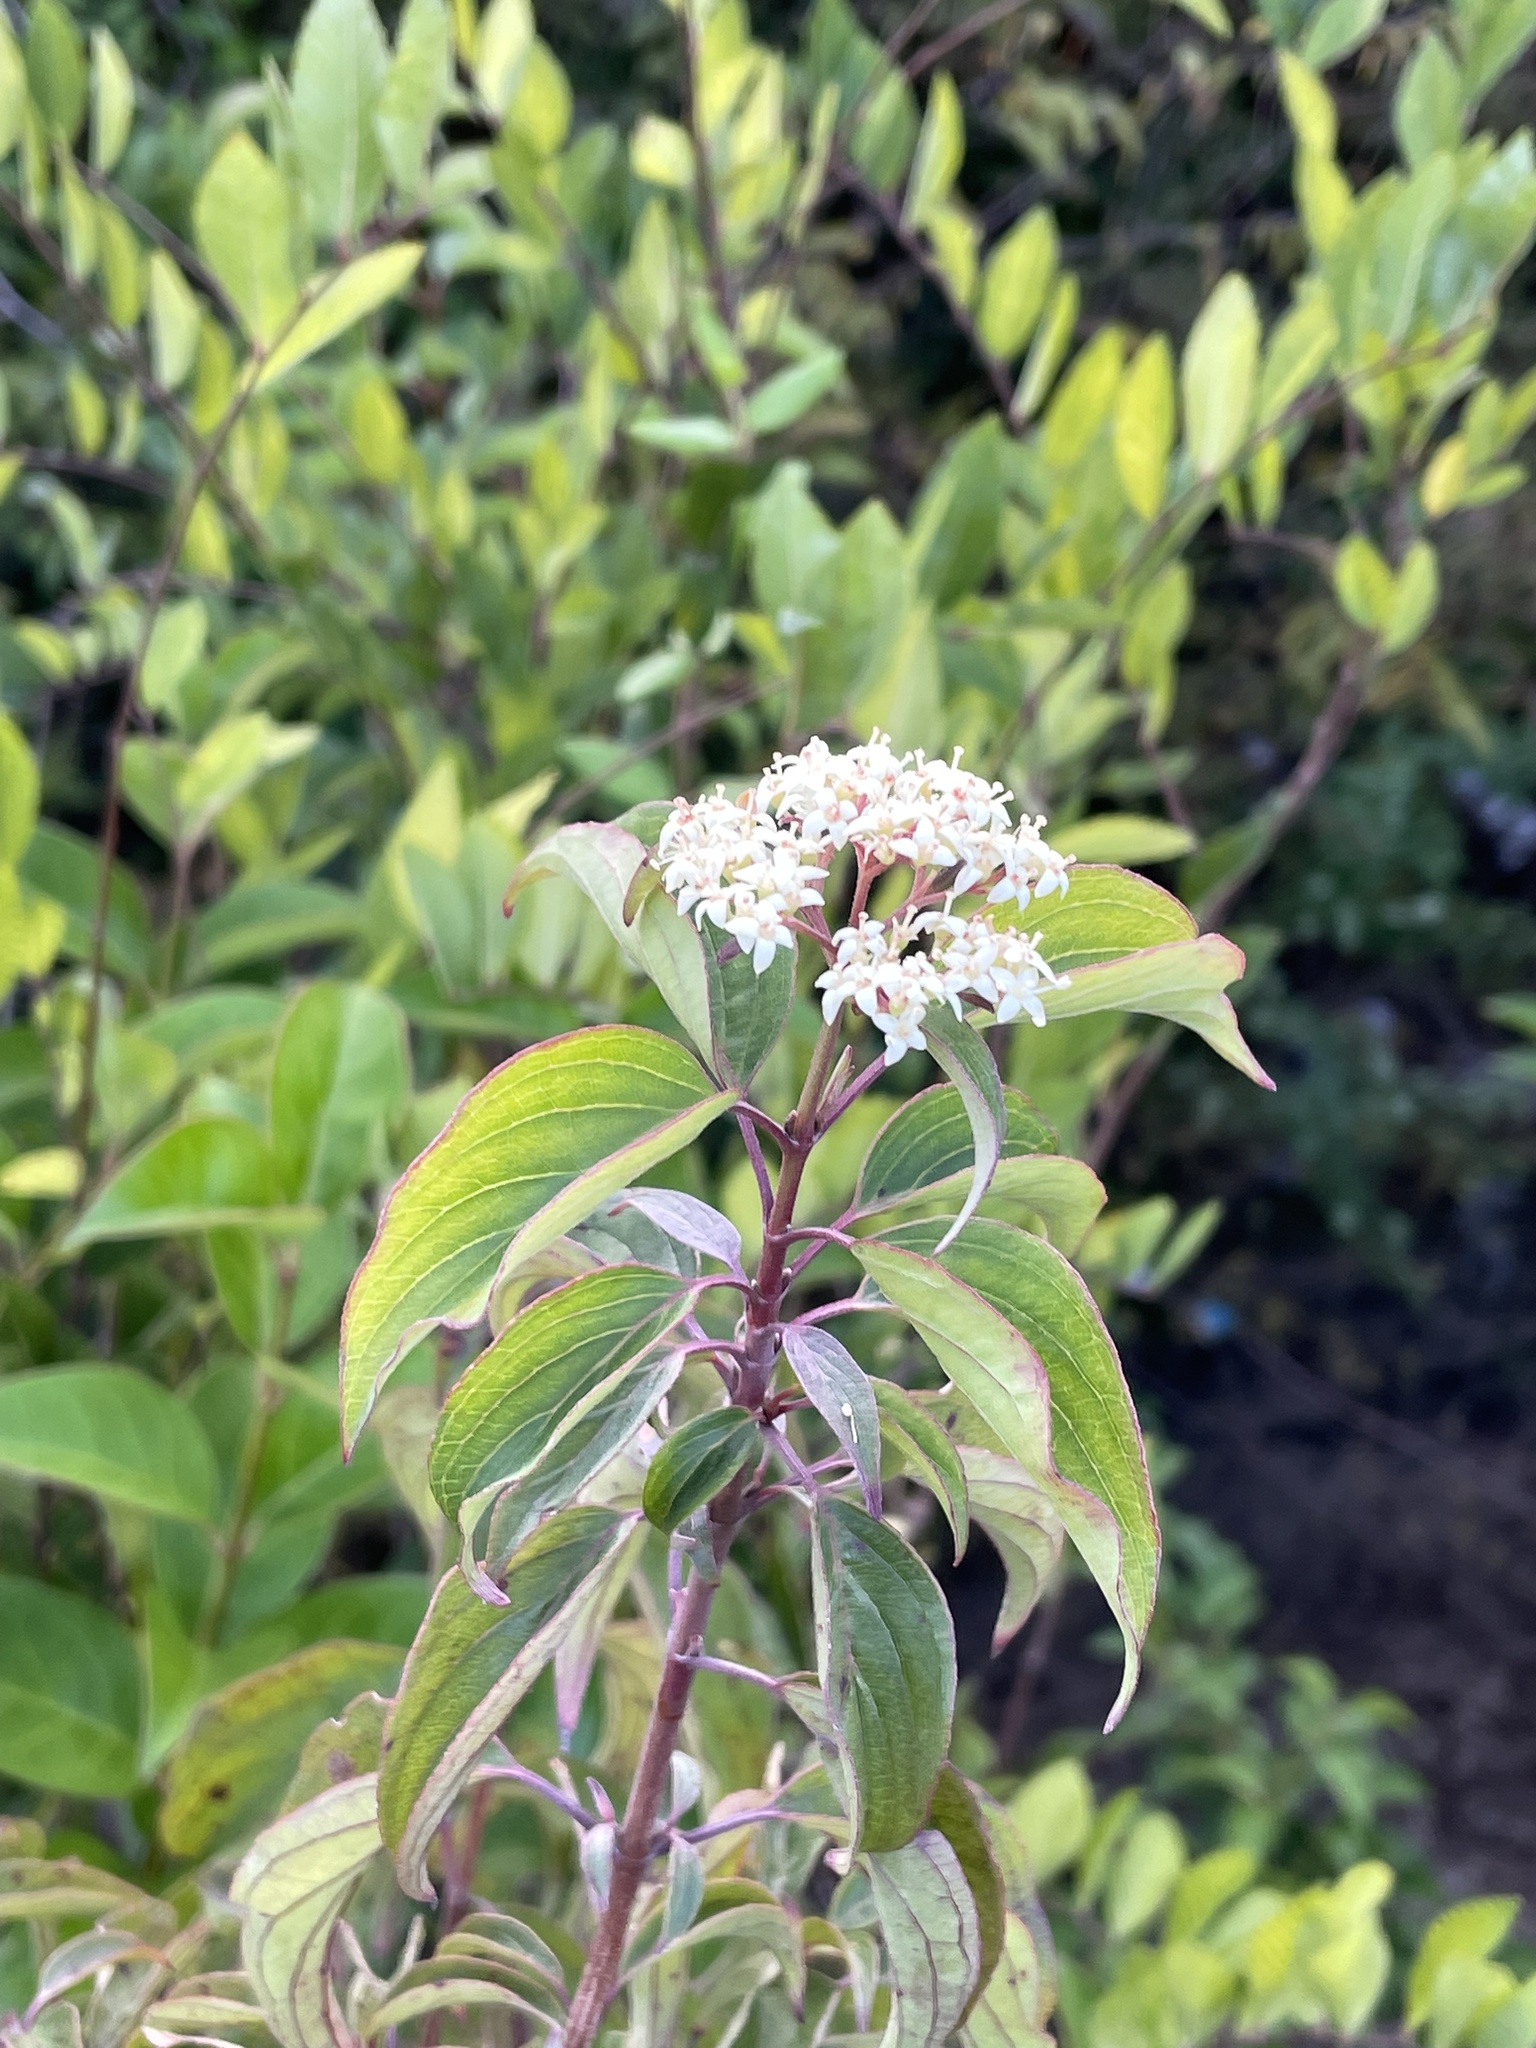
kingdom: Plantae
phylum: Tracheophyta
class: Magnoliopsida
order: Cornales
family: Cornaceae
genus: Cornus
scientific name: Cornus drummondii
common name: Rough-leaf dogwood
